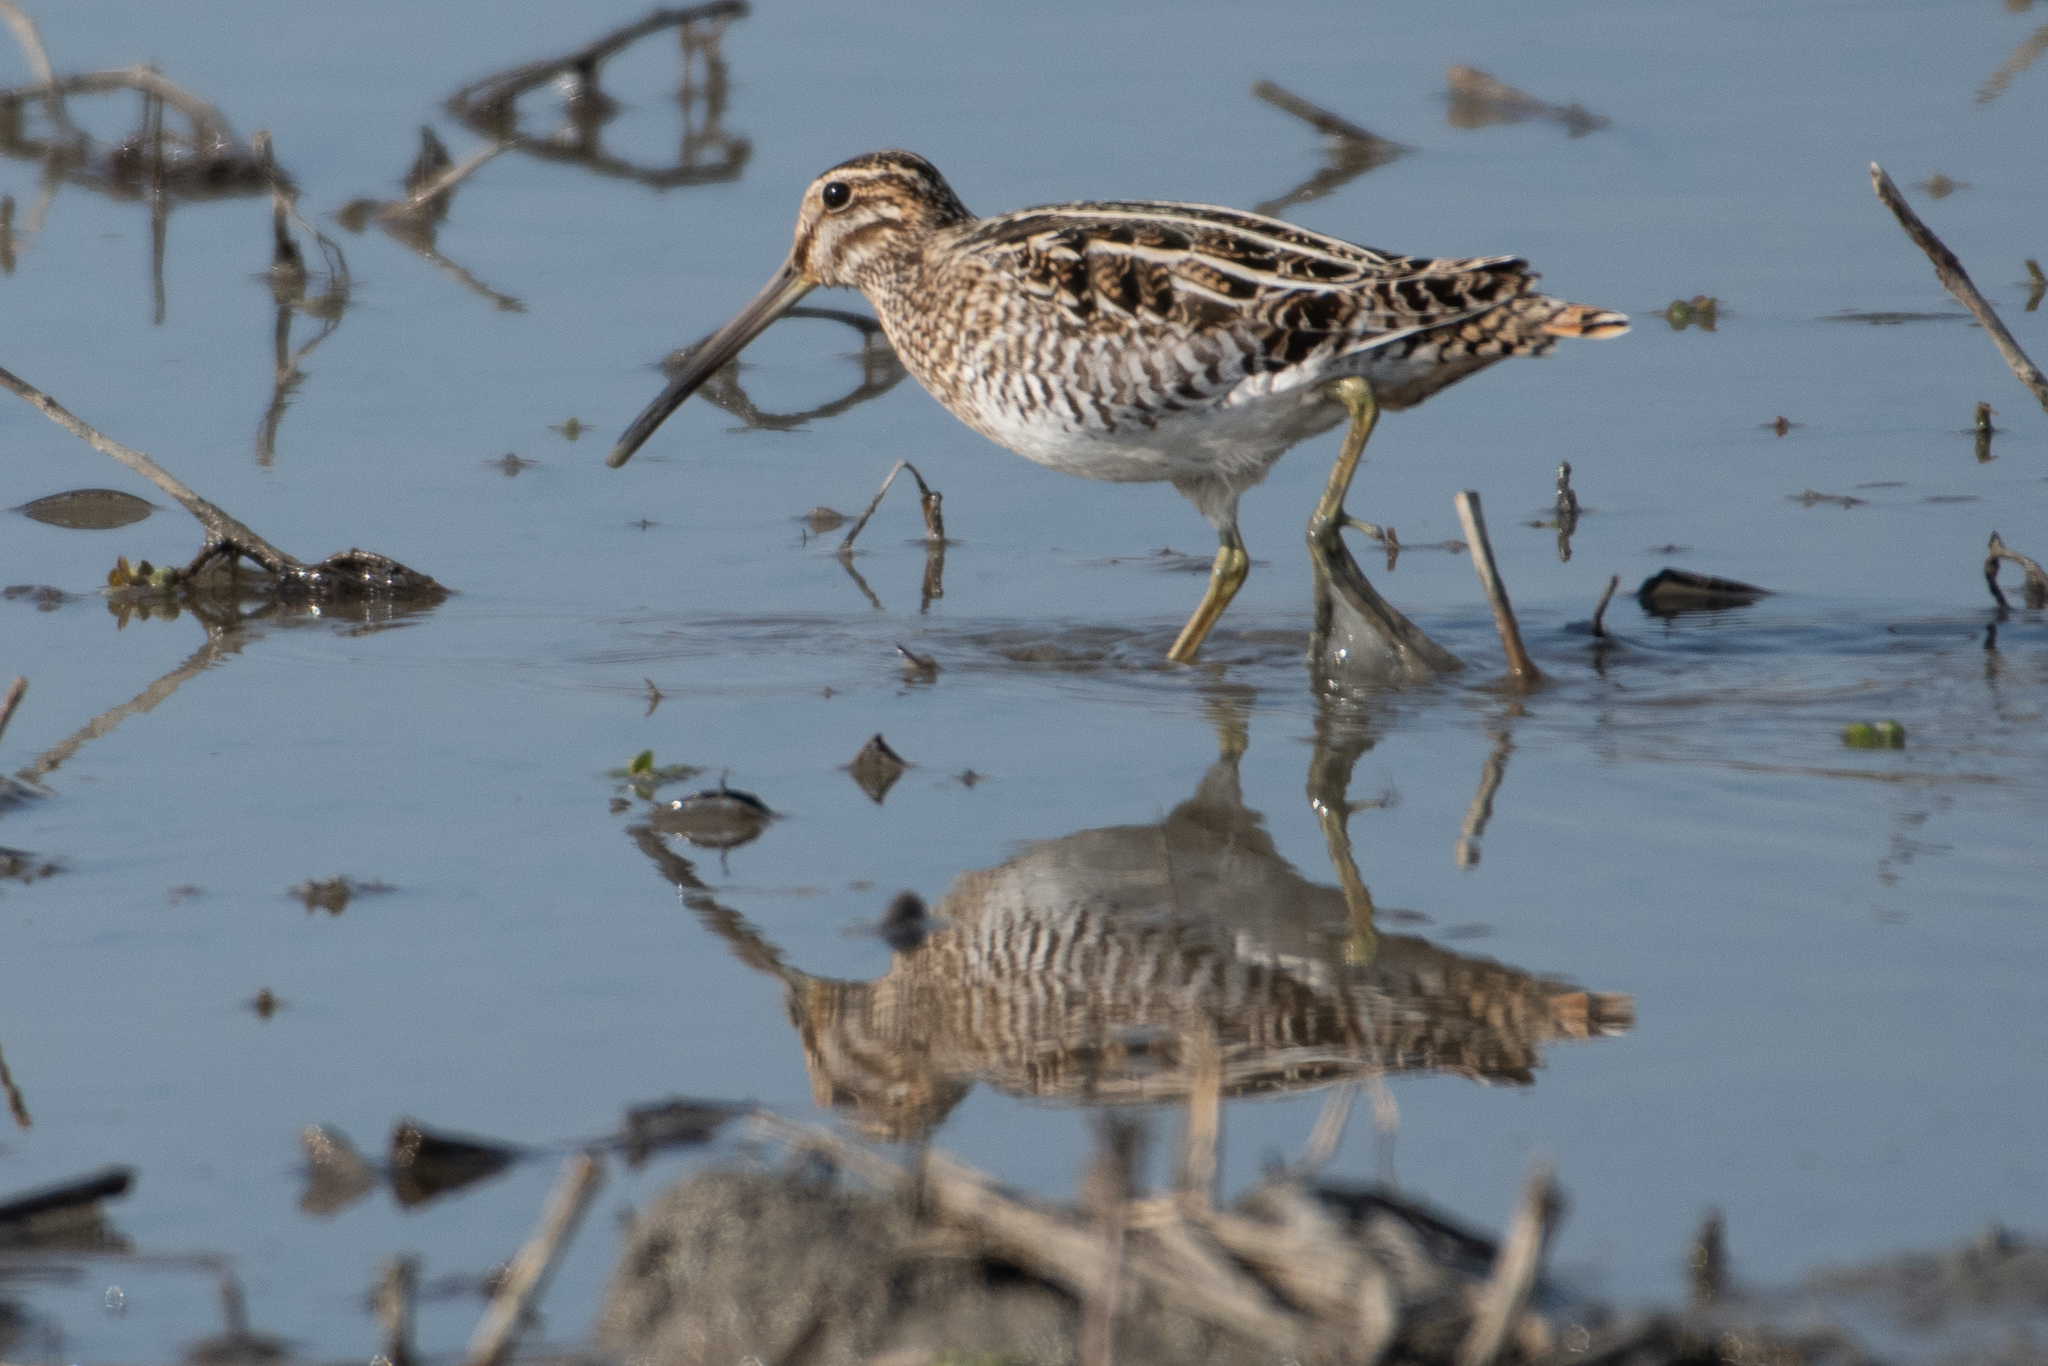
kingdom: Animalia
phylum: Chordata
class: Aves
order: Charadriiformes
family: Scolopacidae
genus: Gallinago
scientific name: Gallinago delicata
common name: Wilson's snipe
